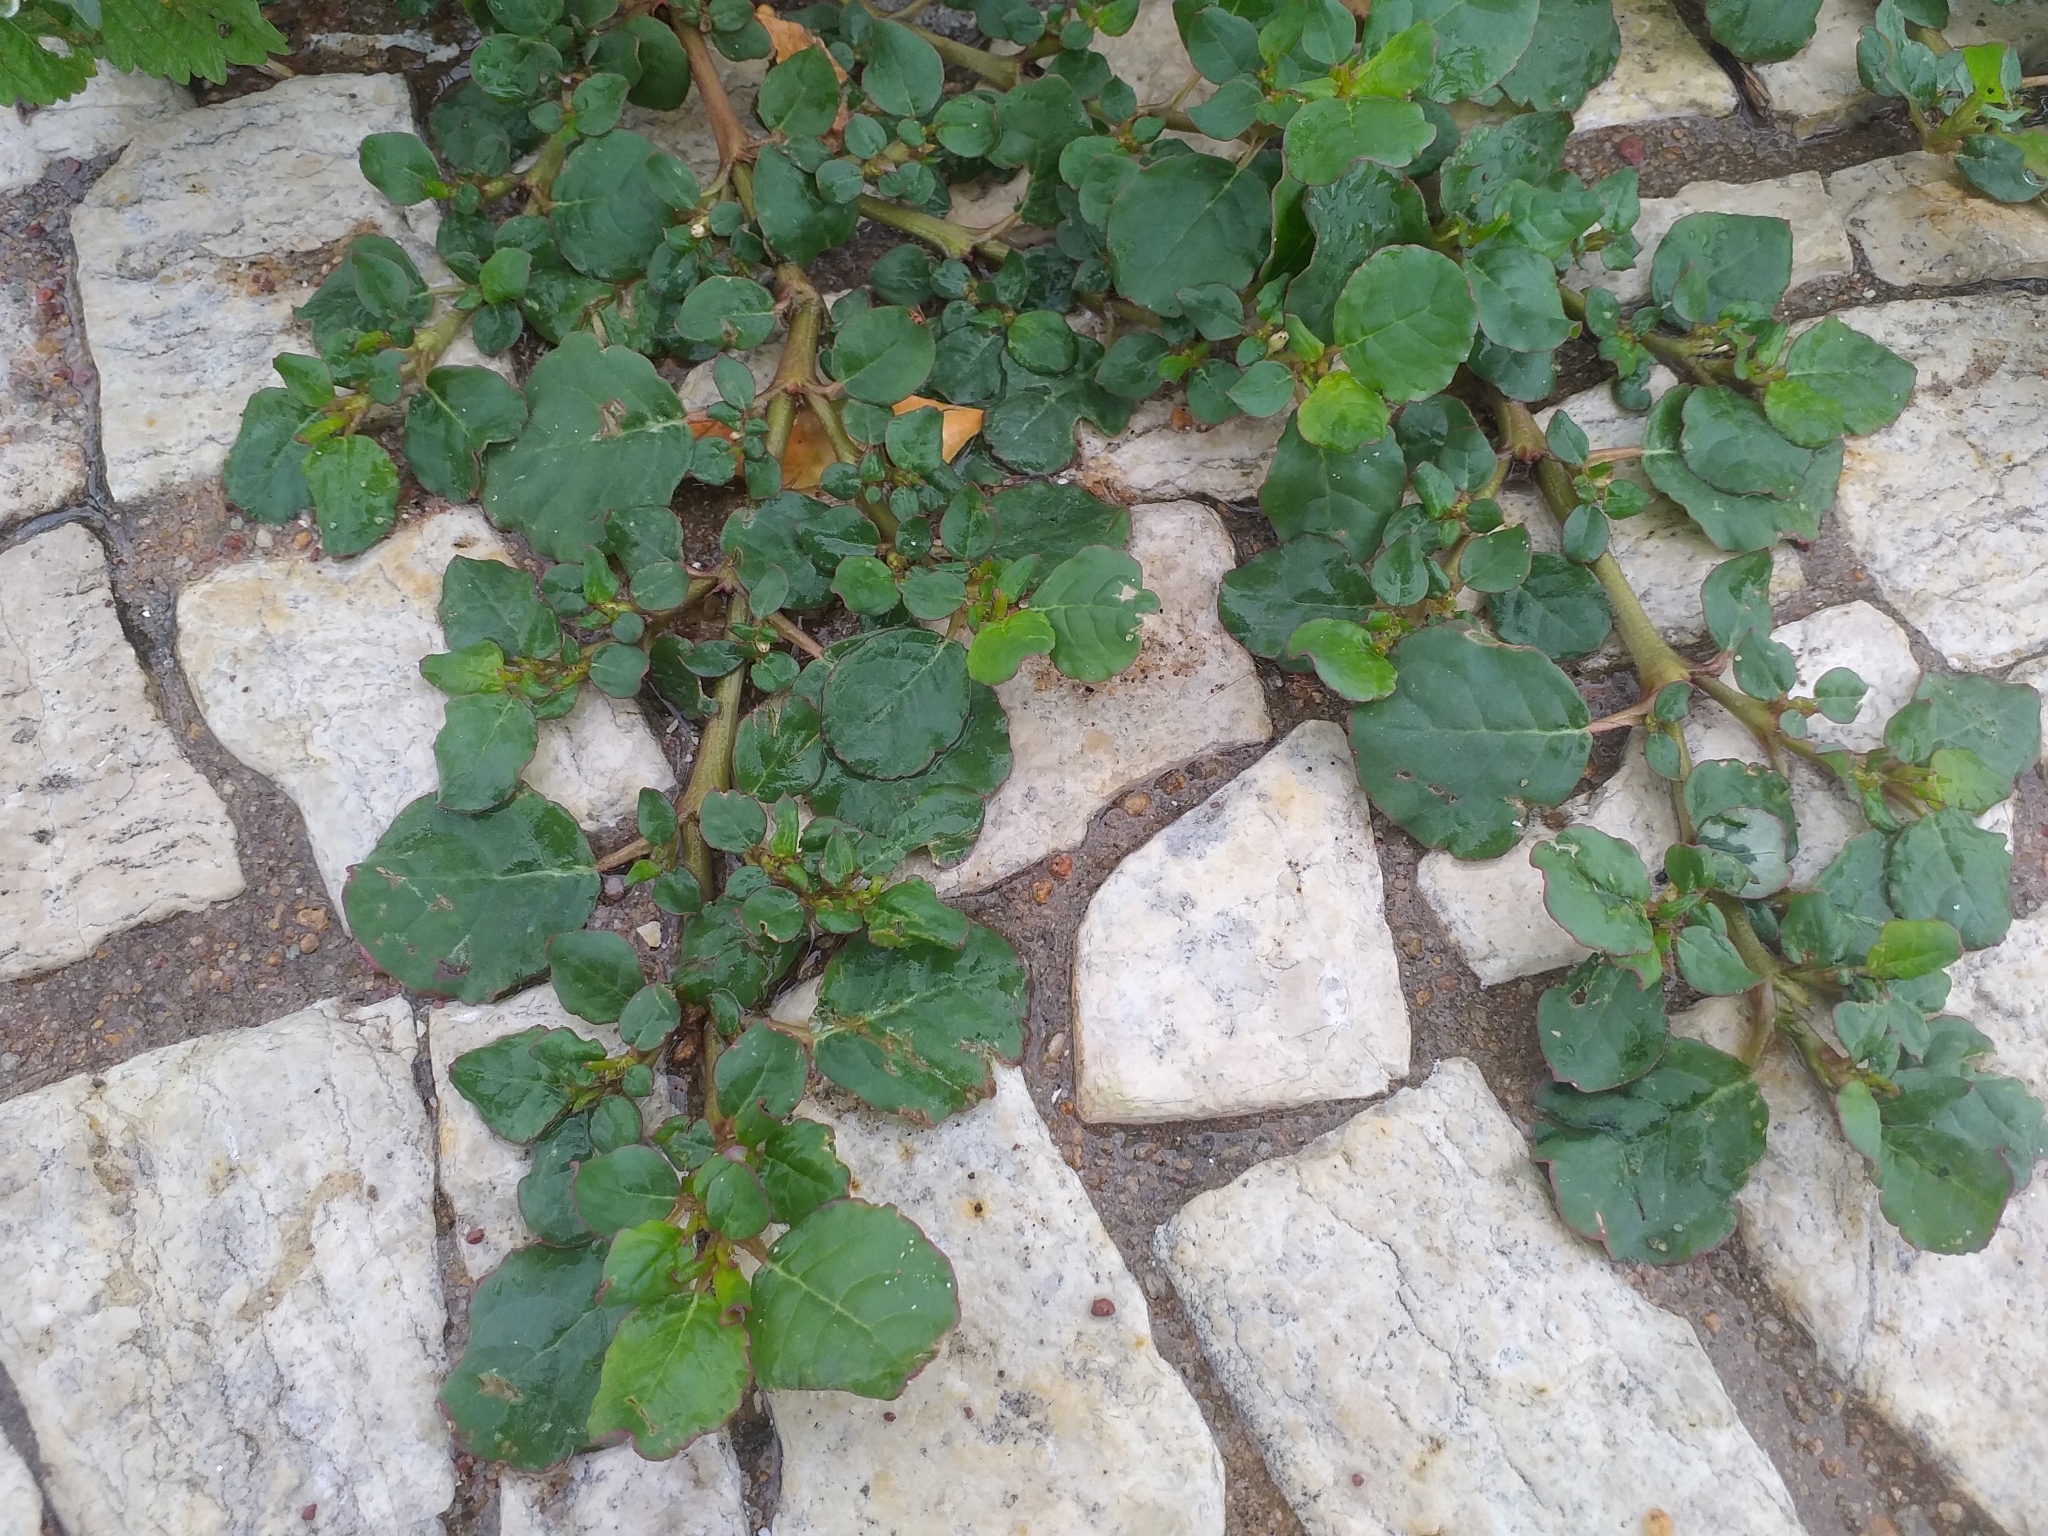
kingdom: Plantae
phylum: Tracheophyta
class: Magnoliopsida
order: Caryophyllales
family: Aizoaceae
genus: Trianthema
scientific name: Trianthema portulacastrum
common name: Desert horsepurslane
